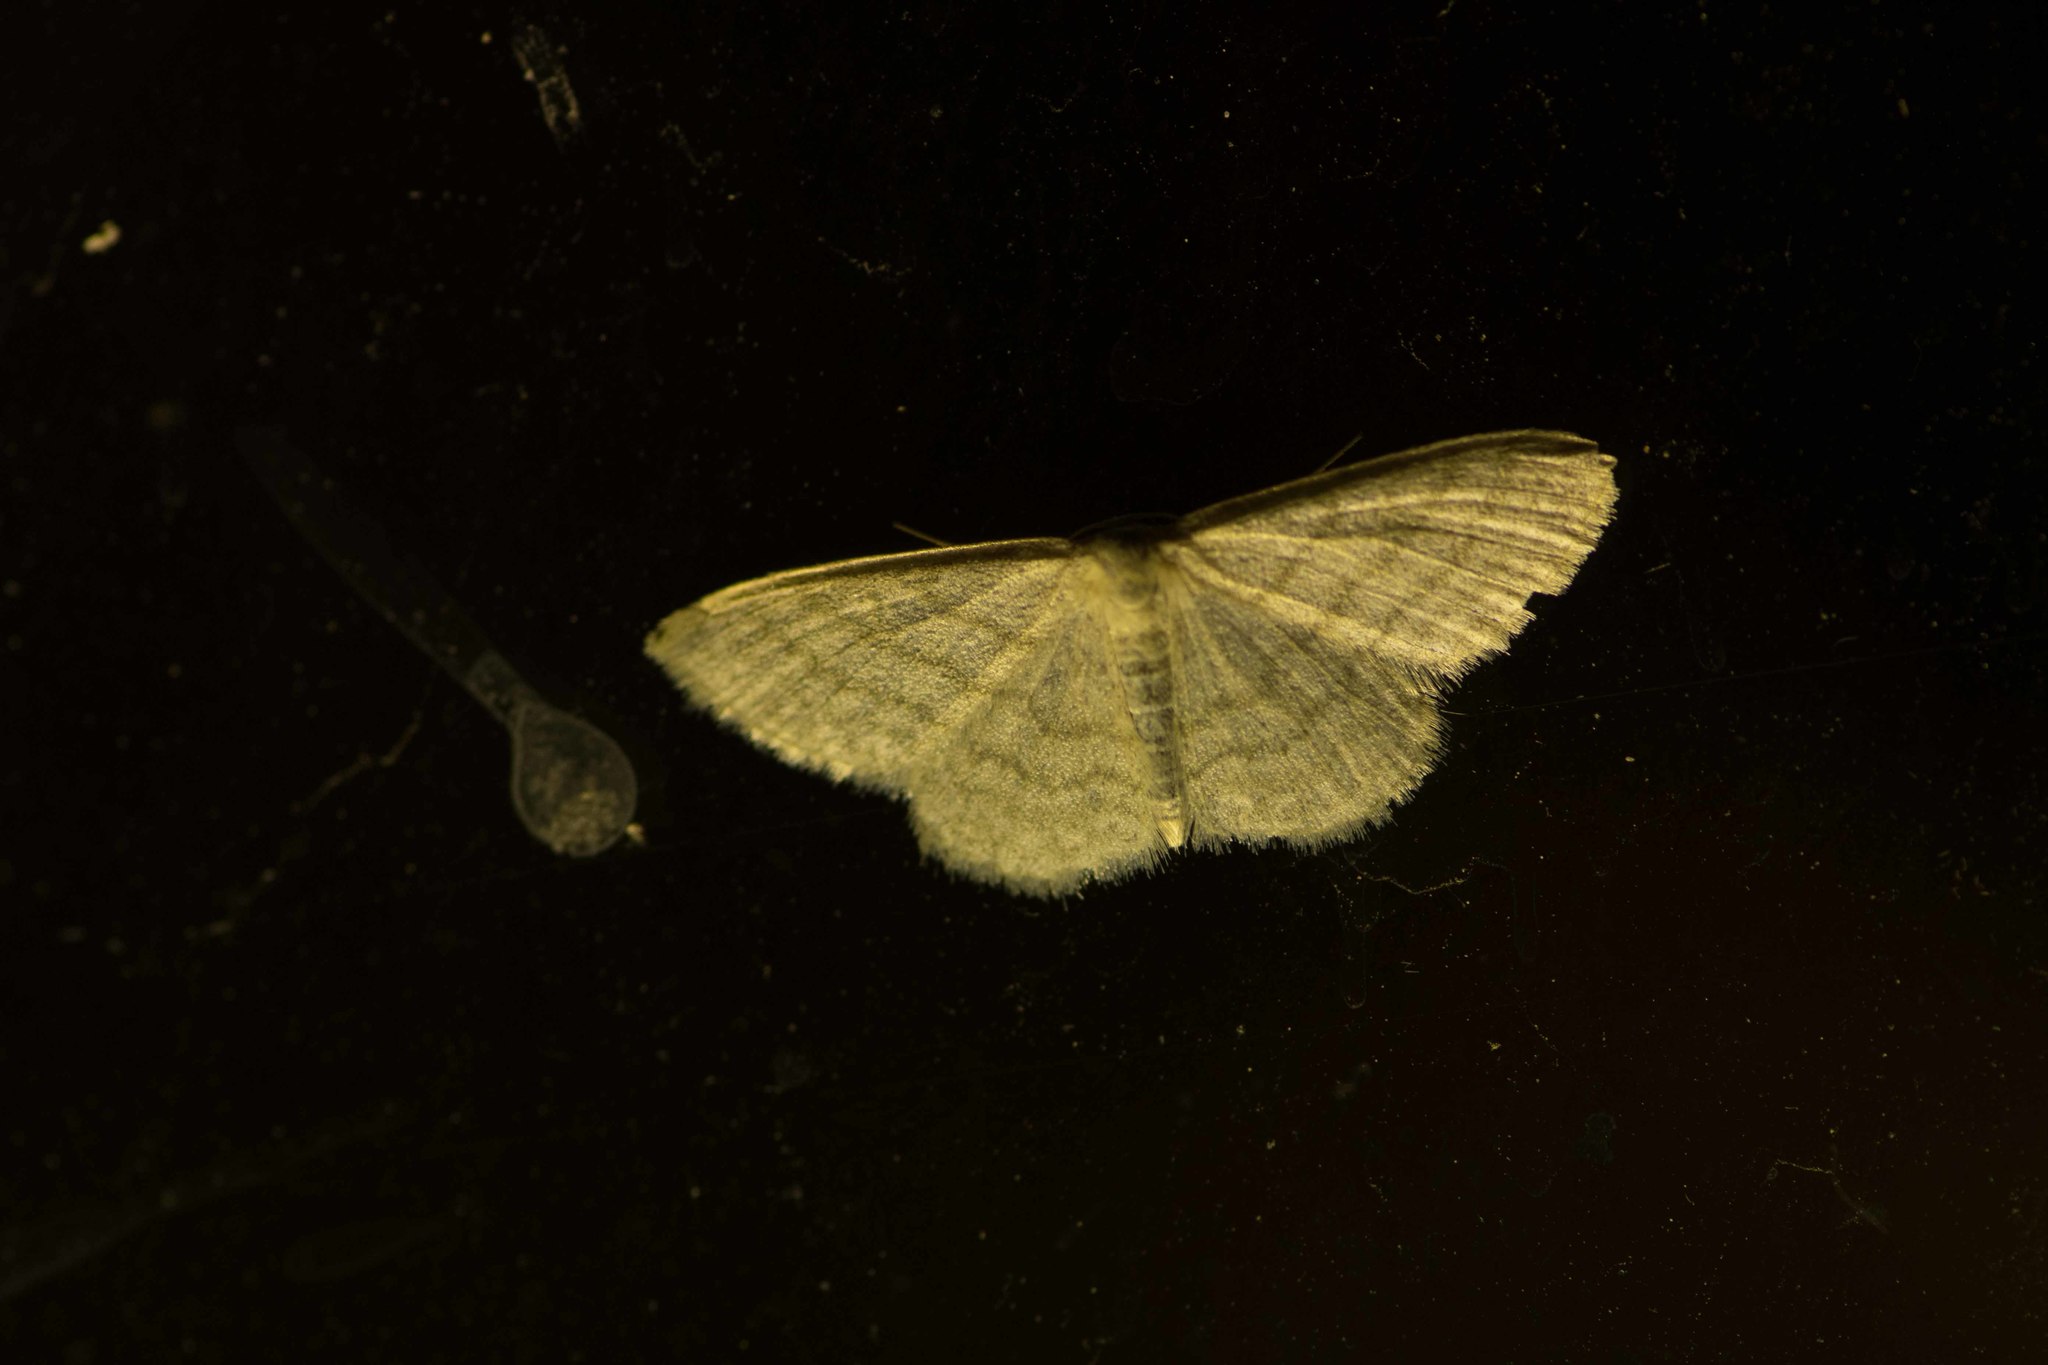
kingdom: Animalia
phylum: Arthropoda
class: Insecta
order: Lepidoptera
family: Geometridae
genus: Idaea
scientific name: Idaea subsericeata
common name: Satin wave
